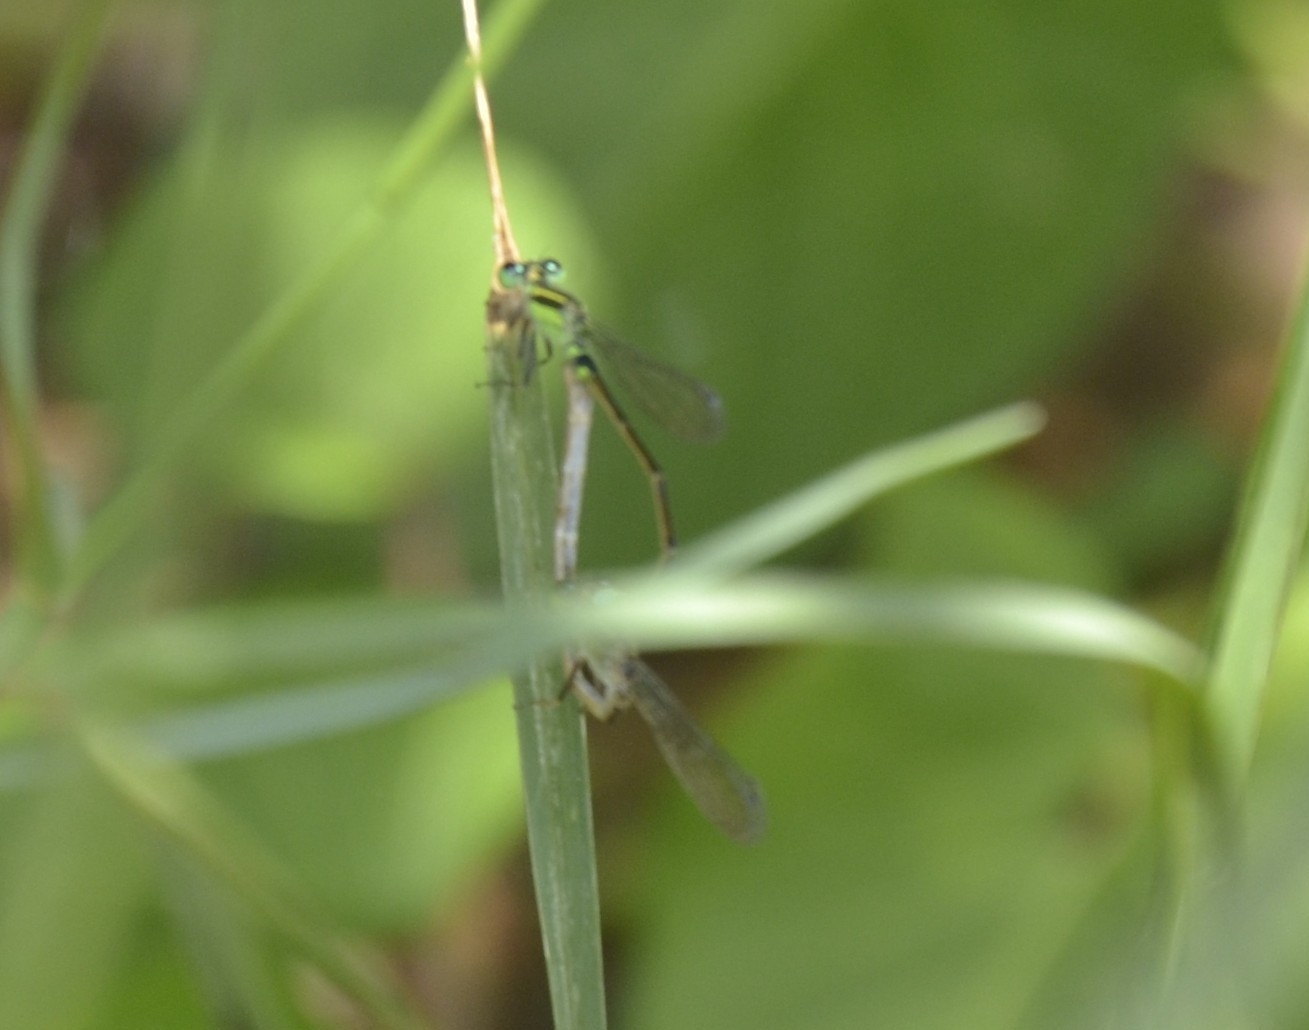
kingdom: Animalia
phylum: Arthropoda
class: Insecta
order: Odonata
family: Coenagrionidae
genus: Ischnura
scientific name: Ischnura senegalensis
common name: Tropical bluetail
